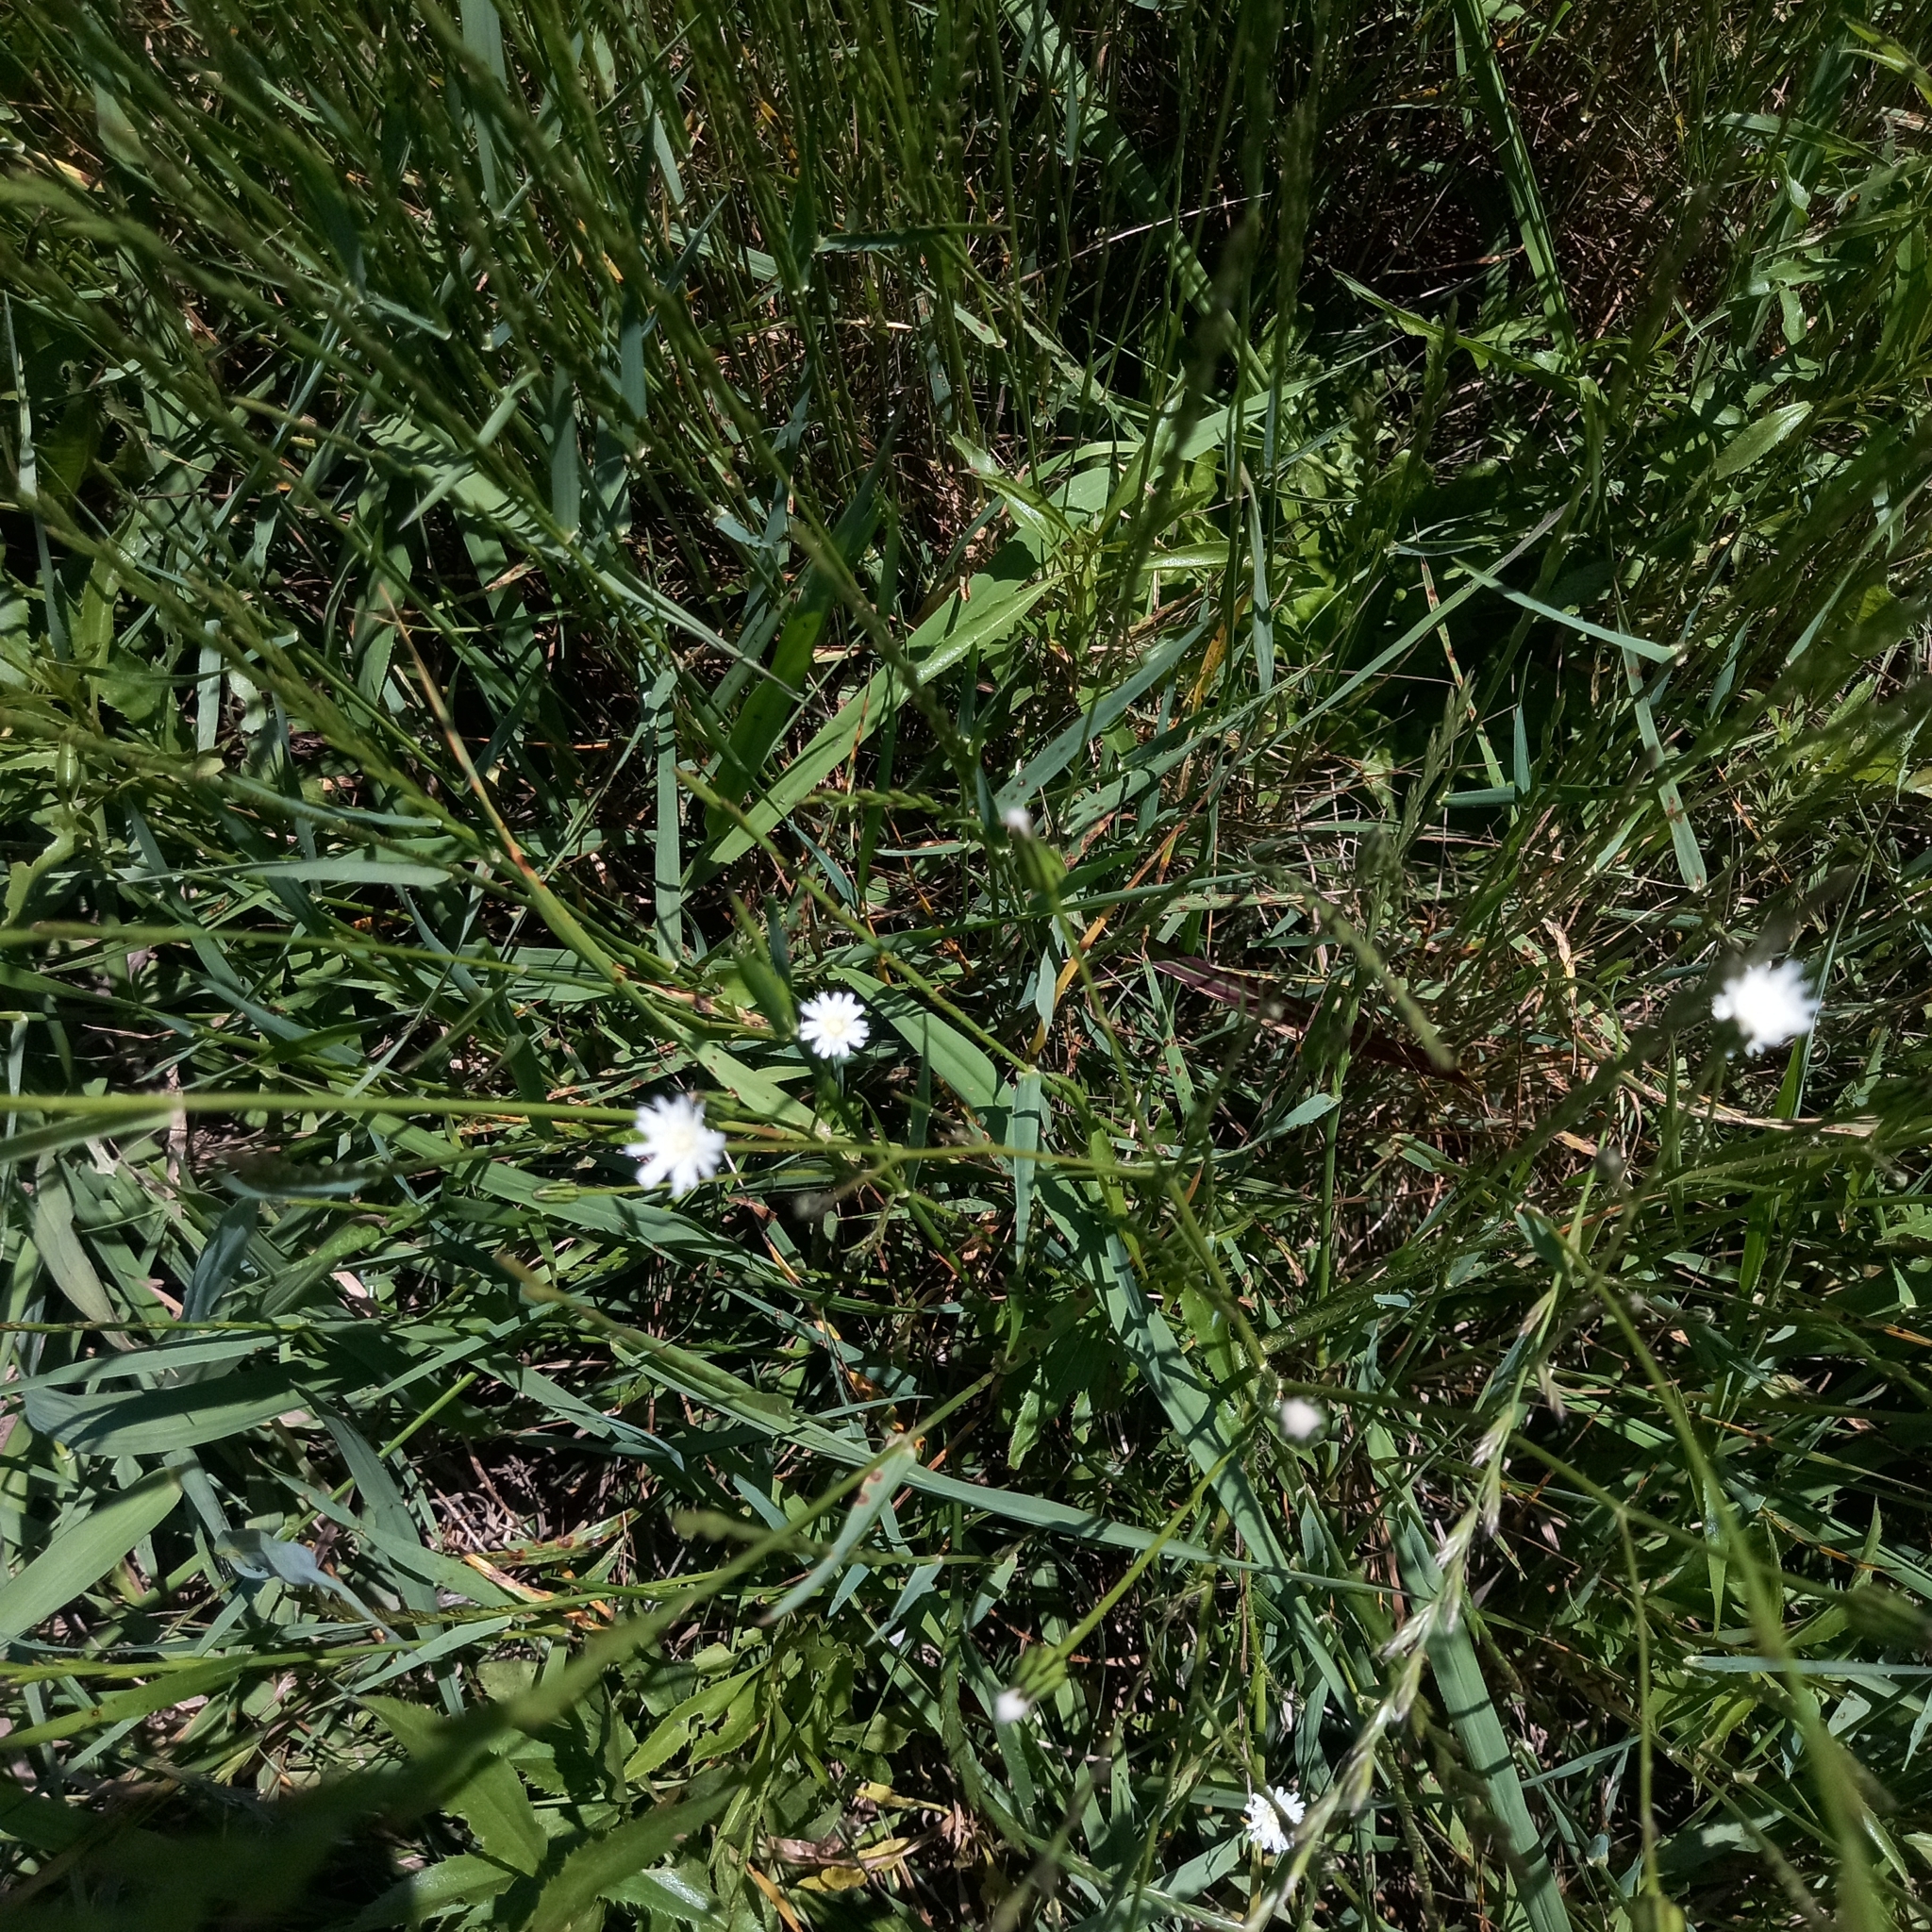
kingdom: Plantae
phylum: Tracheophyta
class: Magnoliopsida
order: Asterales
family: Asteraceae
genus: Hypochaeris
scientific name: Hypochaeris albiflora
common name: White flatweed
